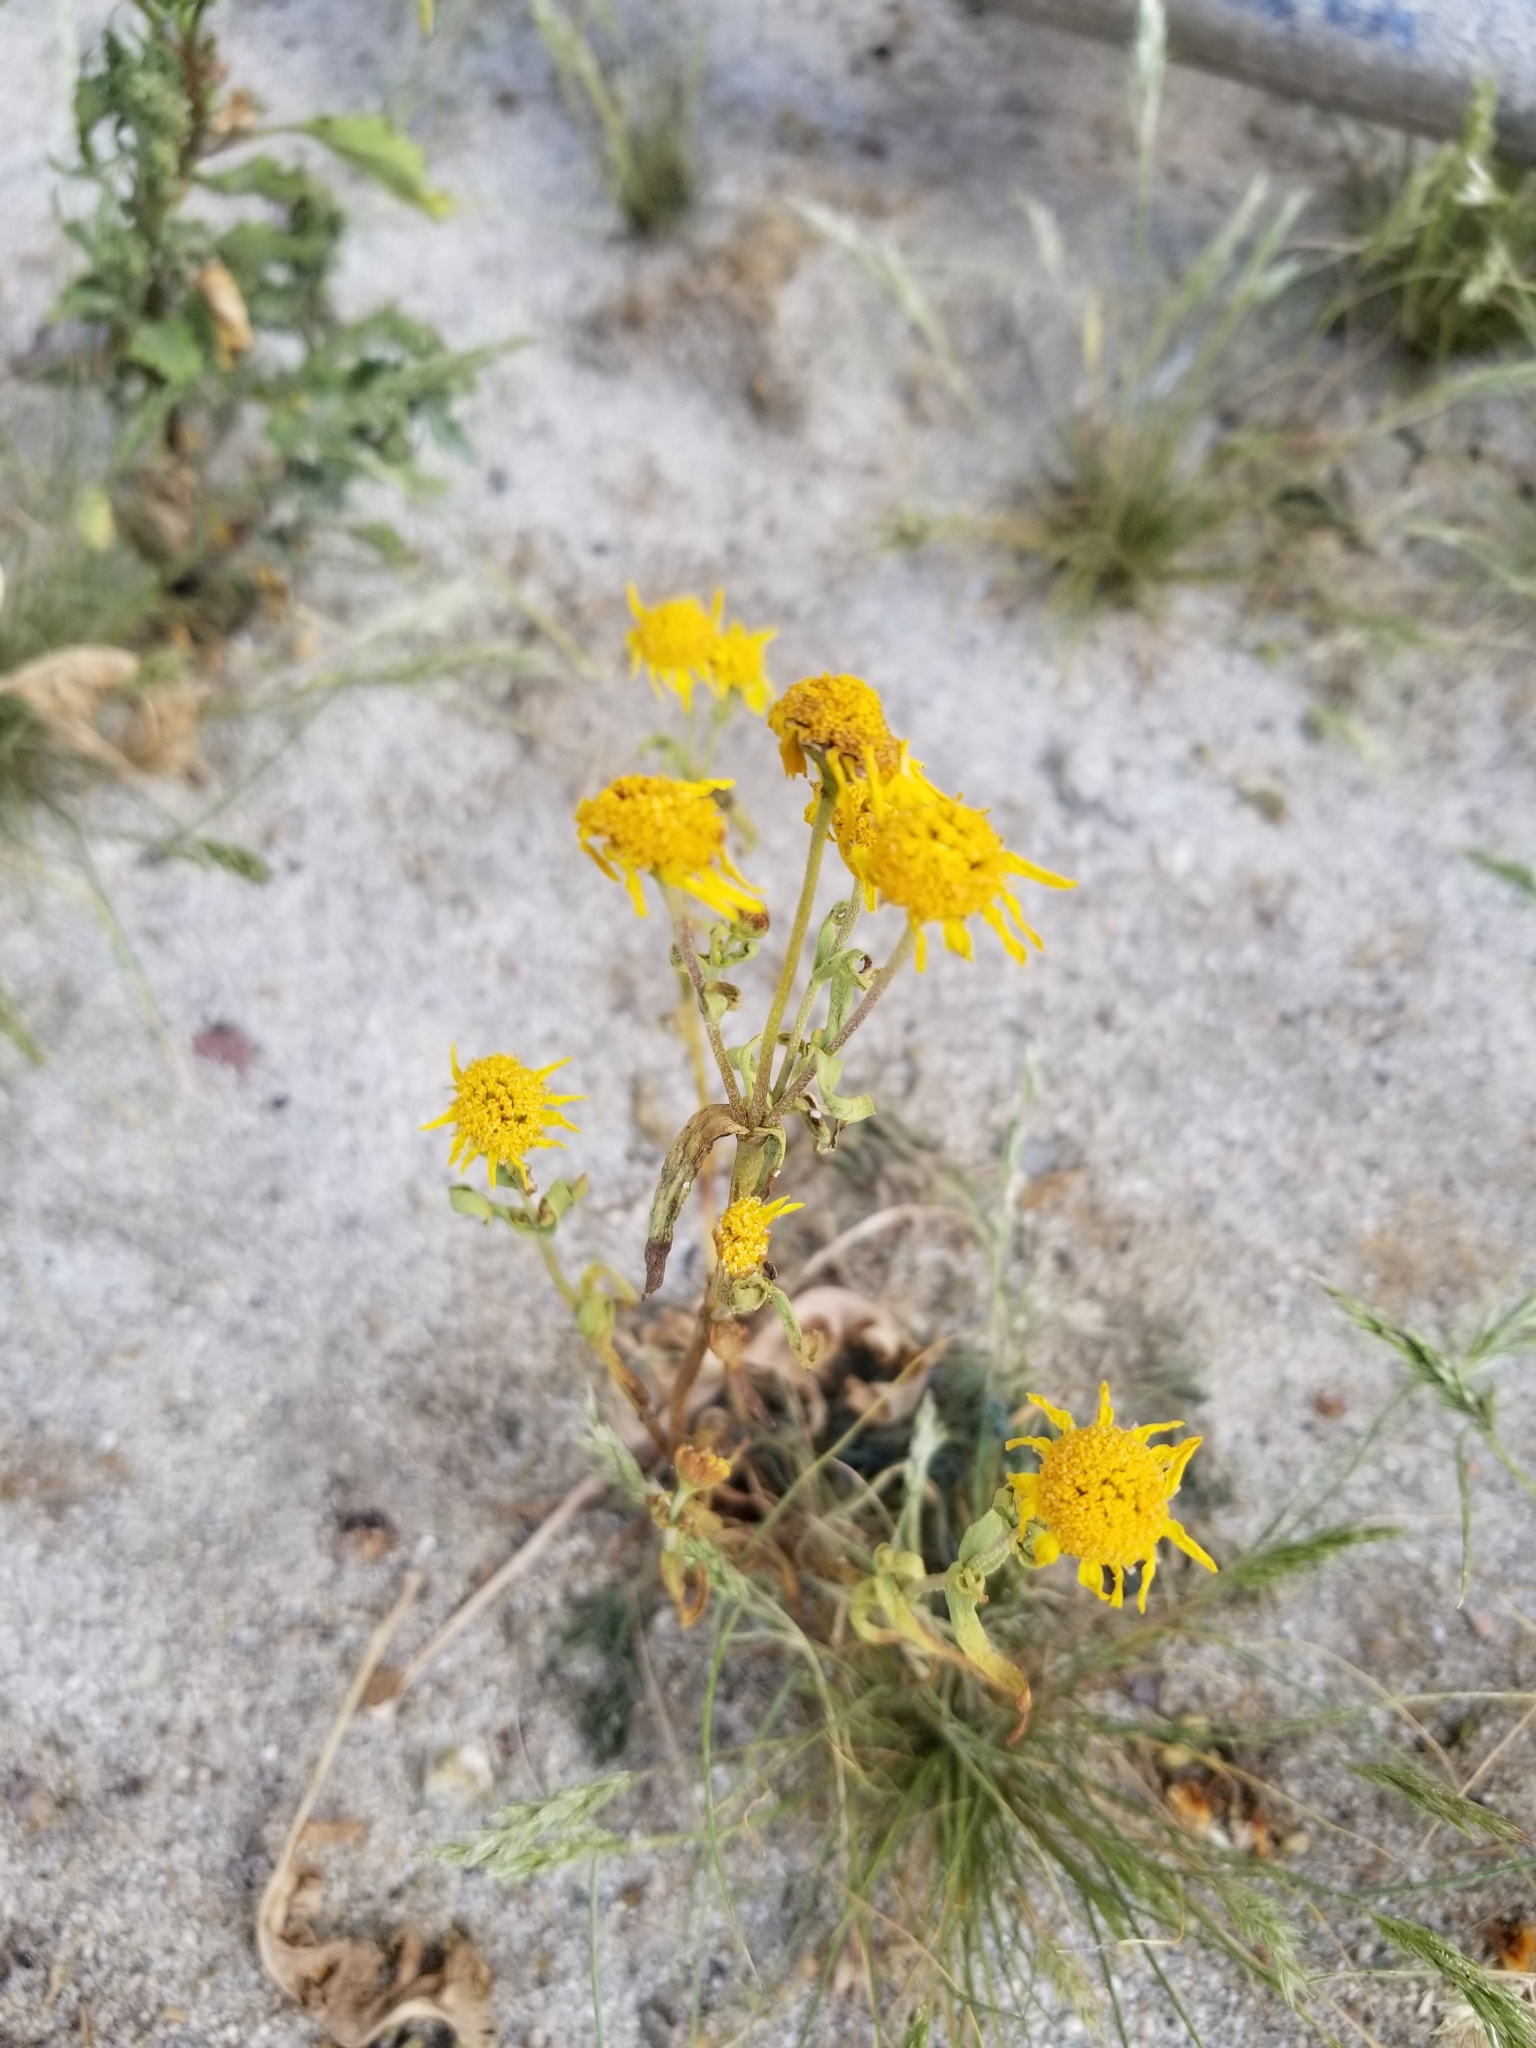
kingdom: Plantae
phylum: Tracheophyta
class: Magnoliopsida
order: Asterales
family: Asteraceae
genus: Geraea
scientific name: Geraea canescens
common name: Desert-gold
